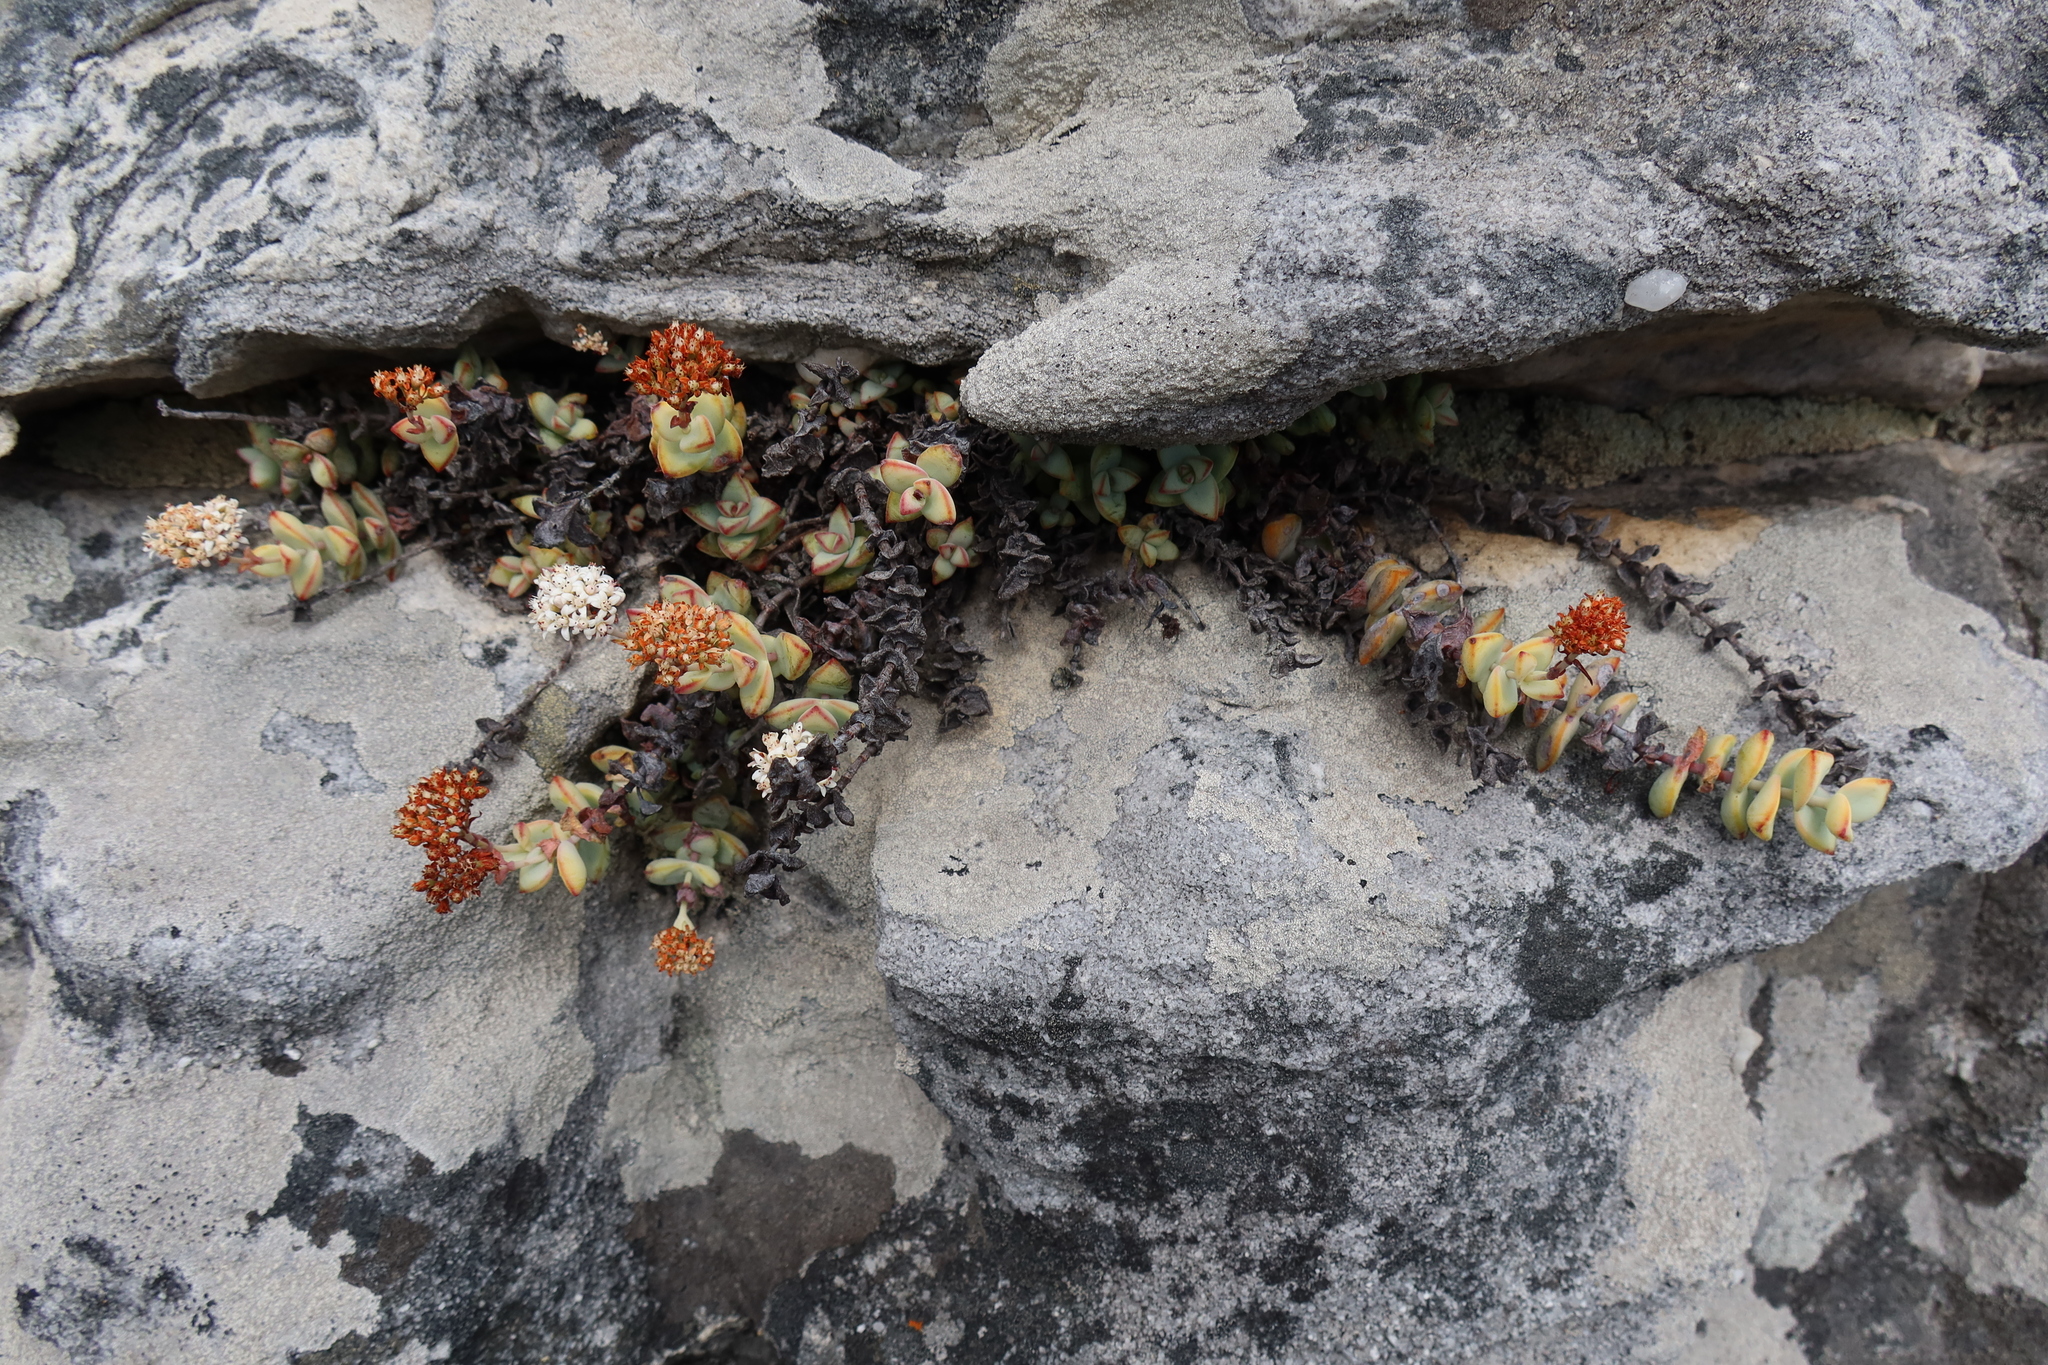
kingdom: Plantae
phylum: Tracheophyta
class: Magnoliopsida
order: Saxifragales
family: Crassulaceae
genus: Crassula
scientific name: Crassula rupestris
